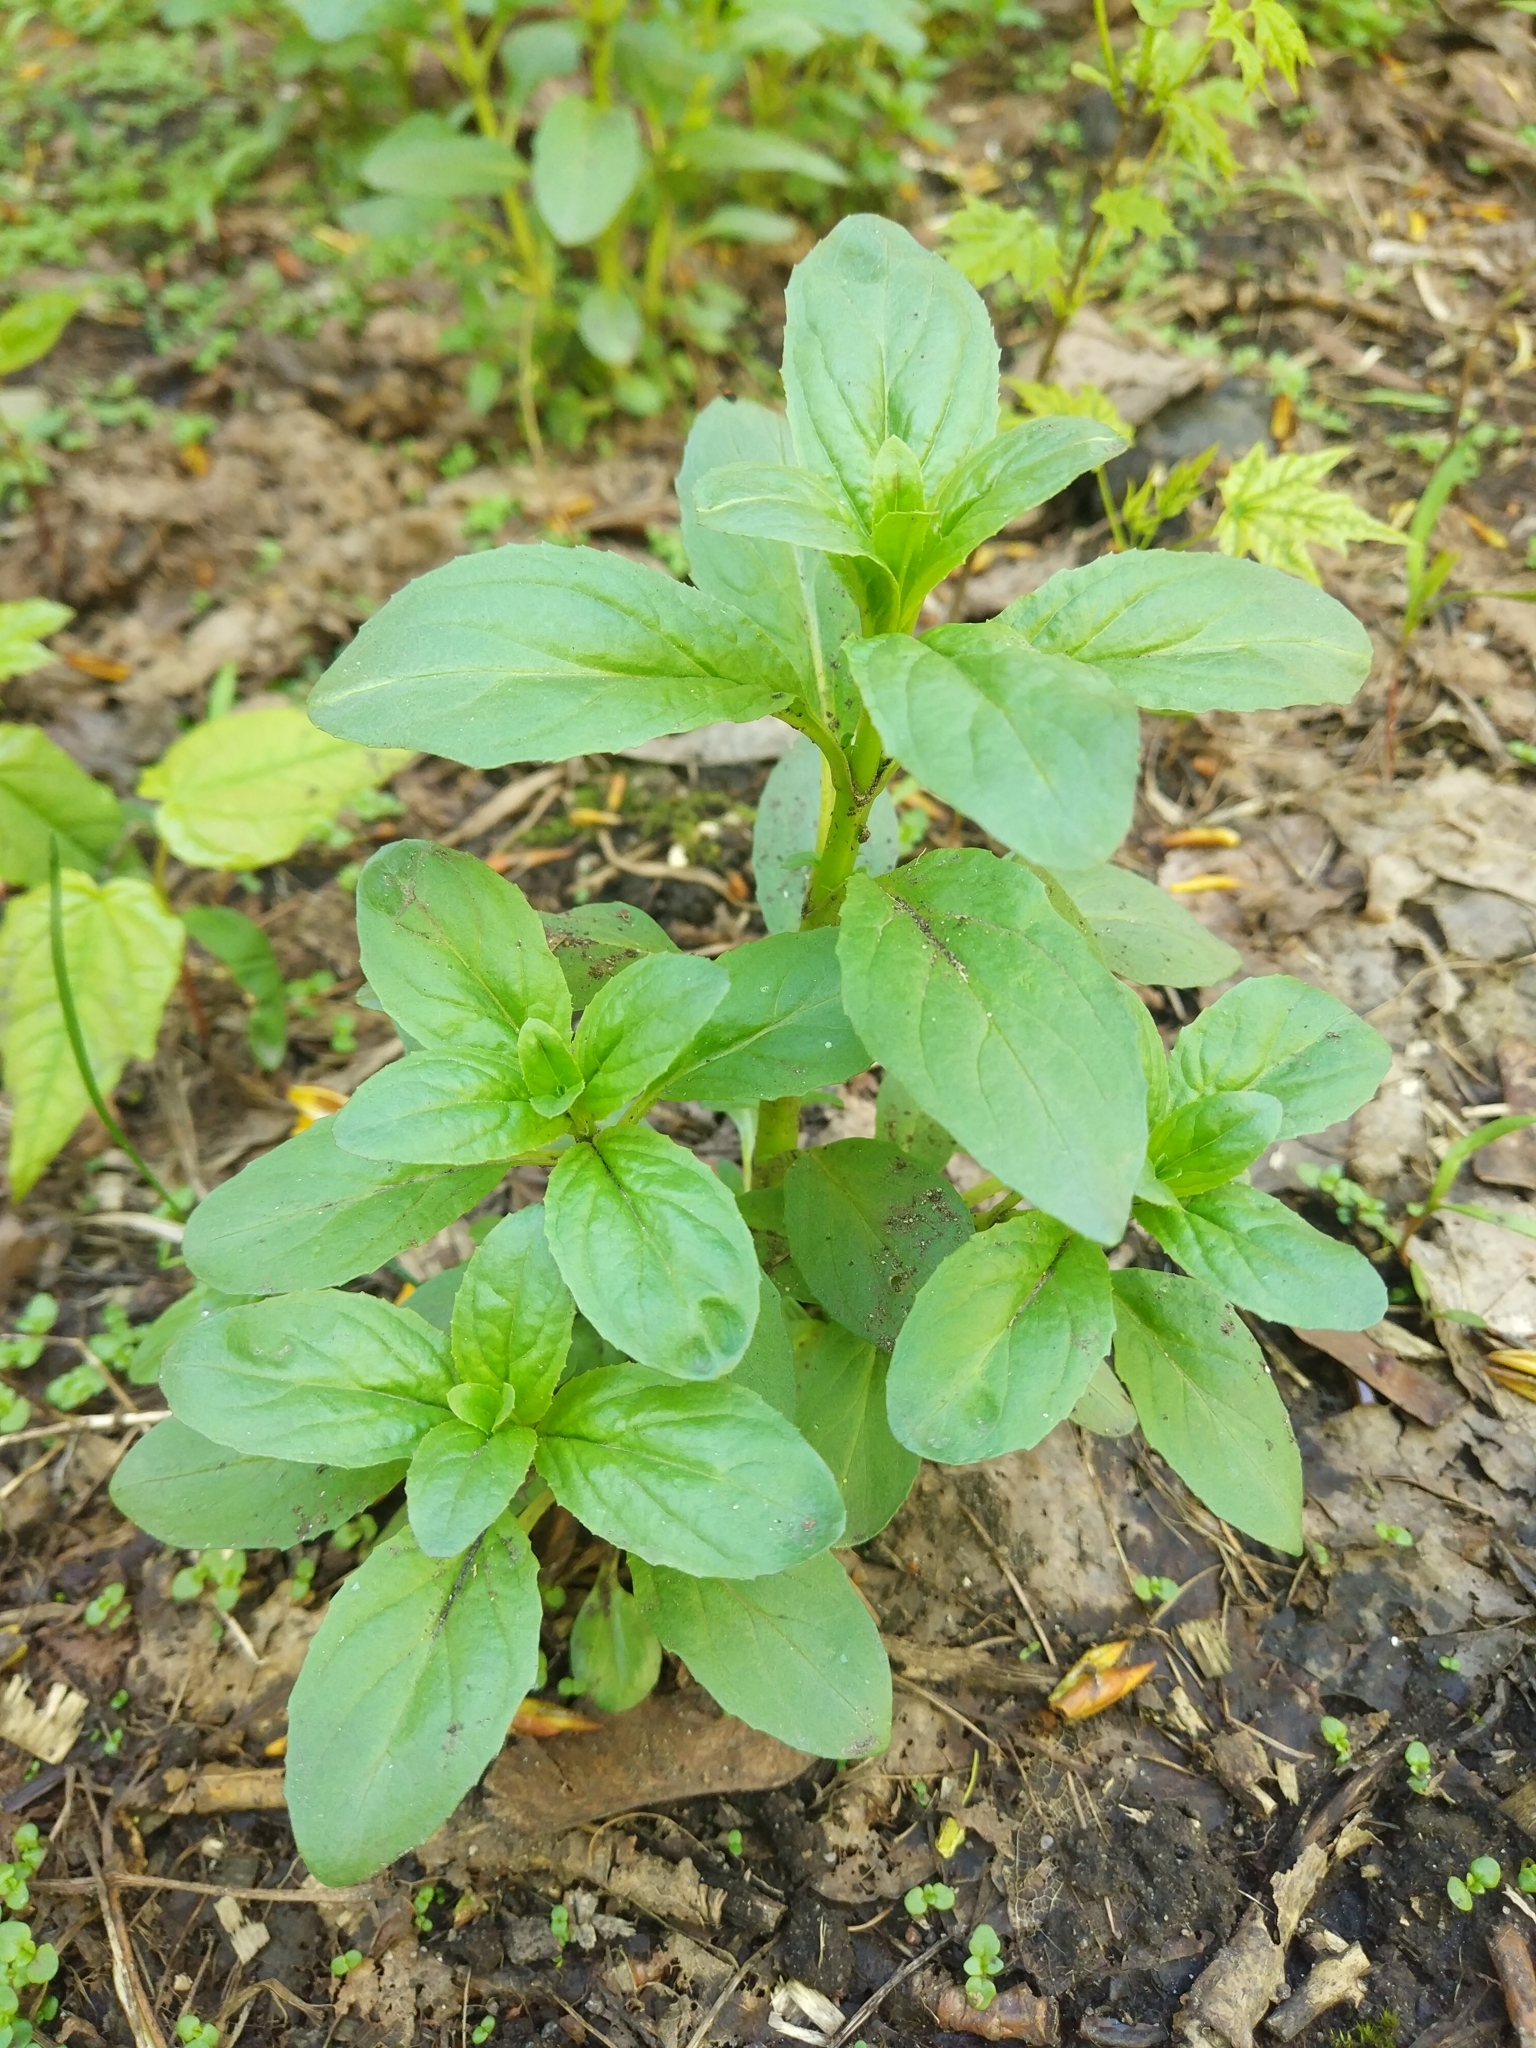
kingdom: Plantae
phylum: Tracheophyta
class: Magnoliopsida
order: Myrtales
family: Onagraceae
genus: Epilobium
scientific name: Epilobium pseudorubescens
